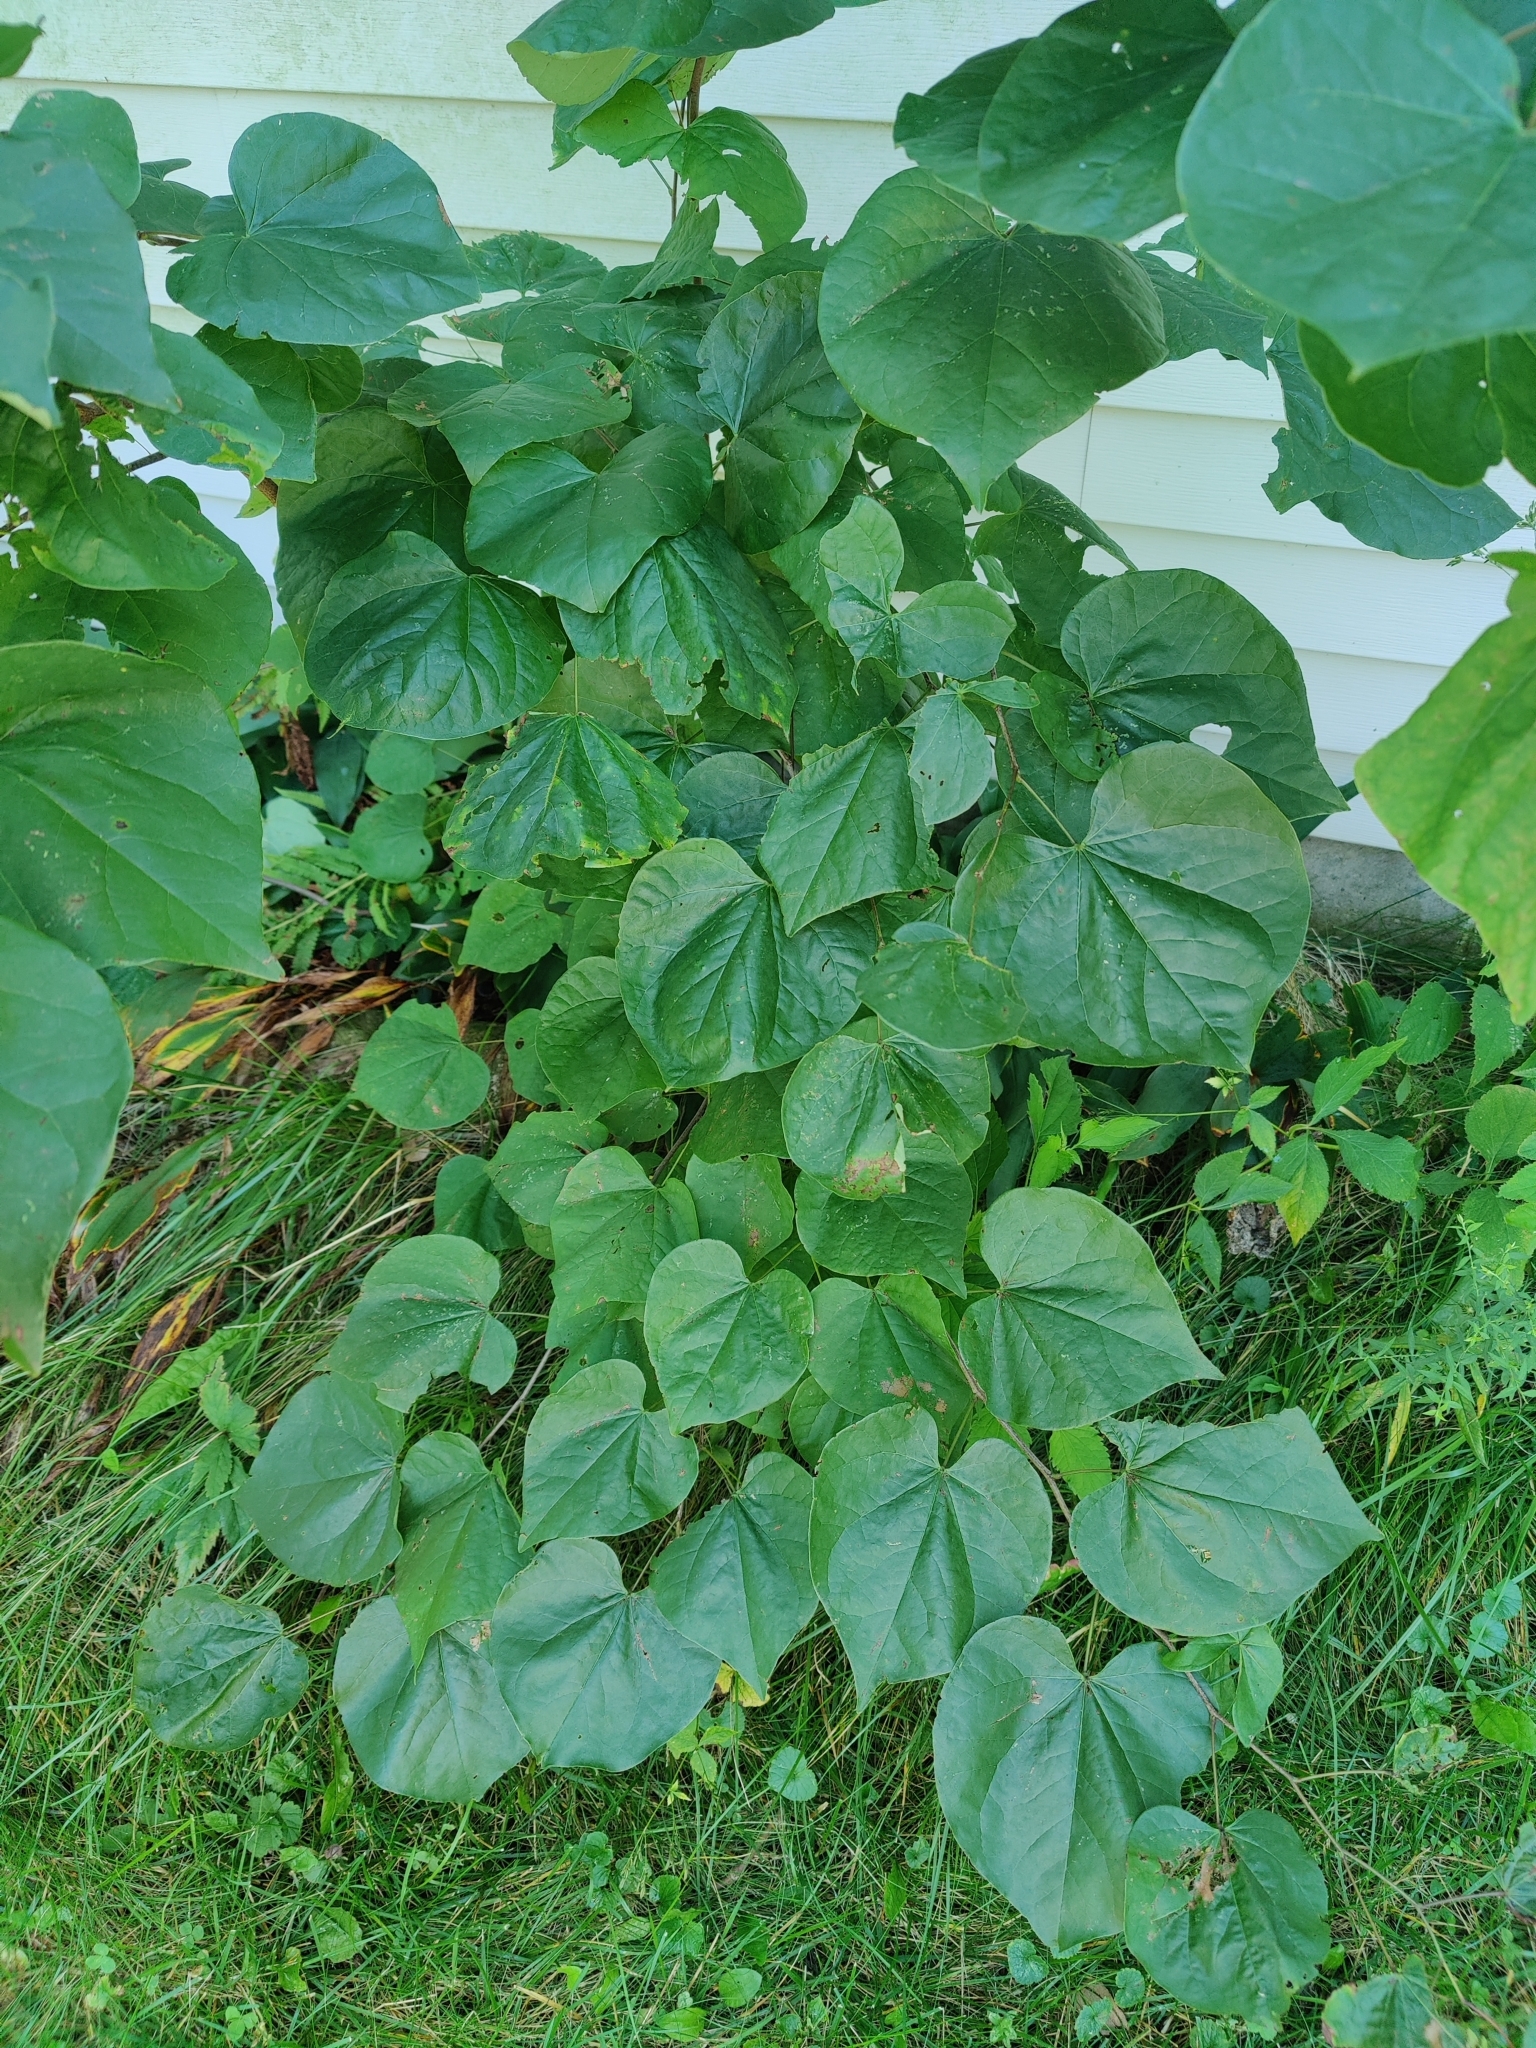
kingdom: Plantae
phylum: Tracheophyta
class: Magnoliopsida
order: Fabales
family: Fabaceae
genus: Cercis
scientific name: Cercis canadensis
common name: Eastern redbud
